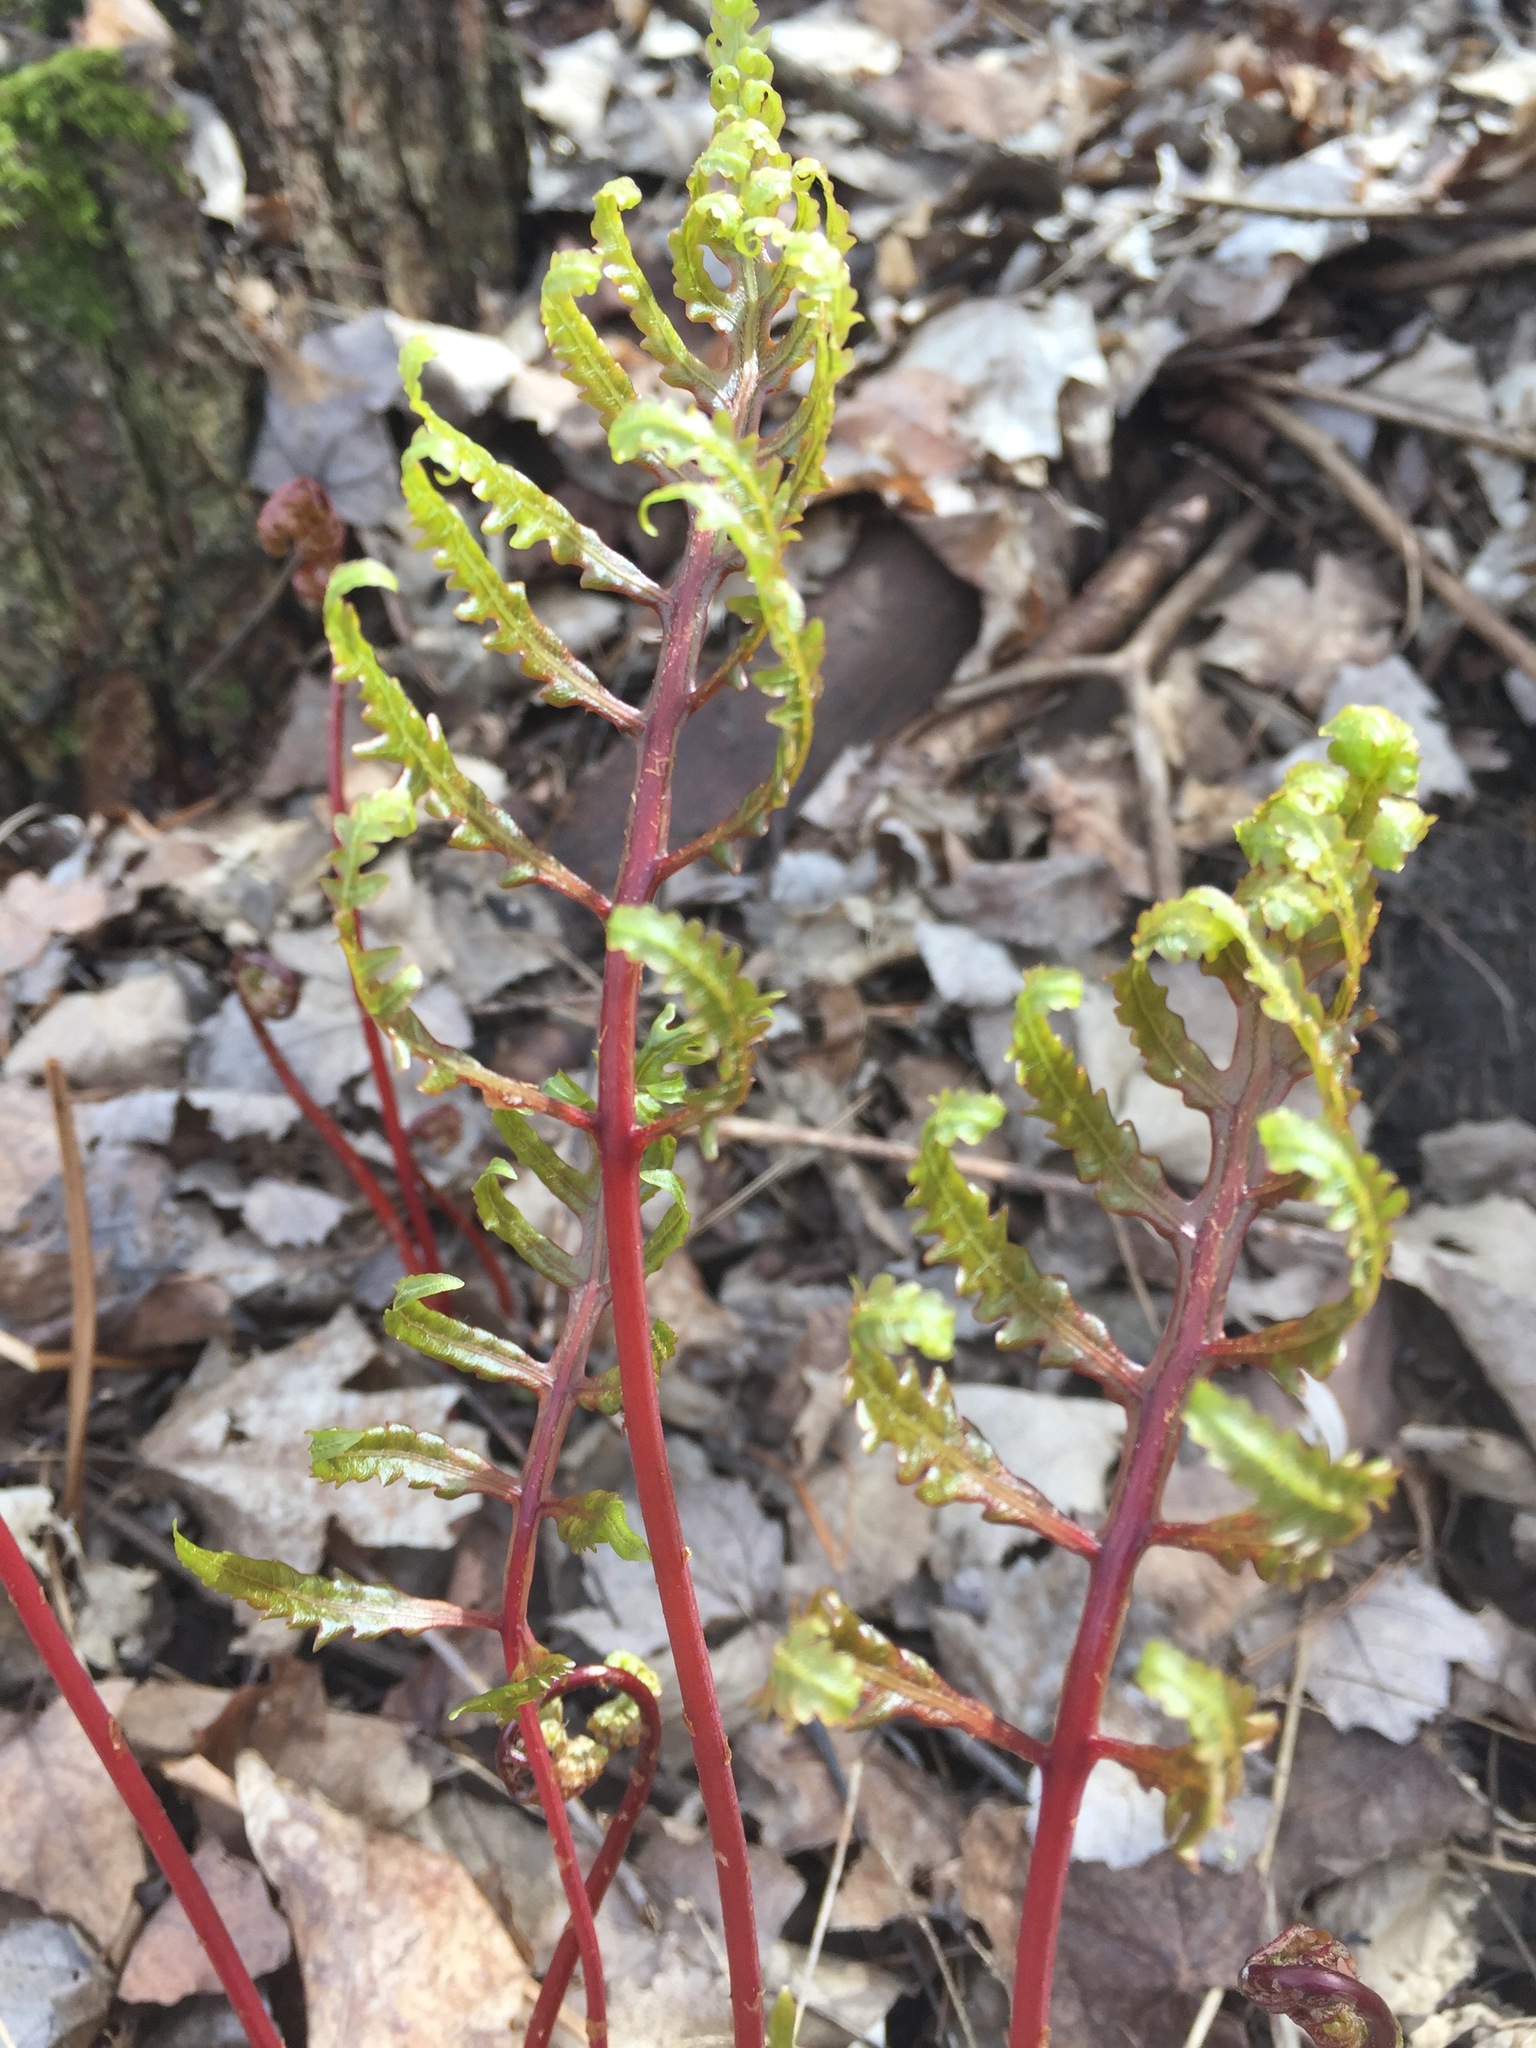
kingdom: Plantae
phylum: Tracheophyta
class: Polypodiopsida
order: Polypodiales
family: Onocleaceae
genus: Onoclea
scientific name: Onoclea sensibilis
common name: Sensitive fern
